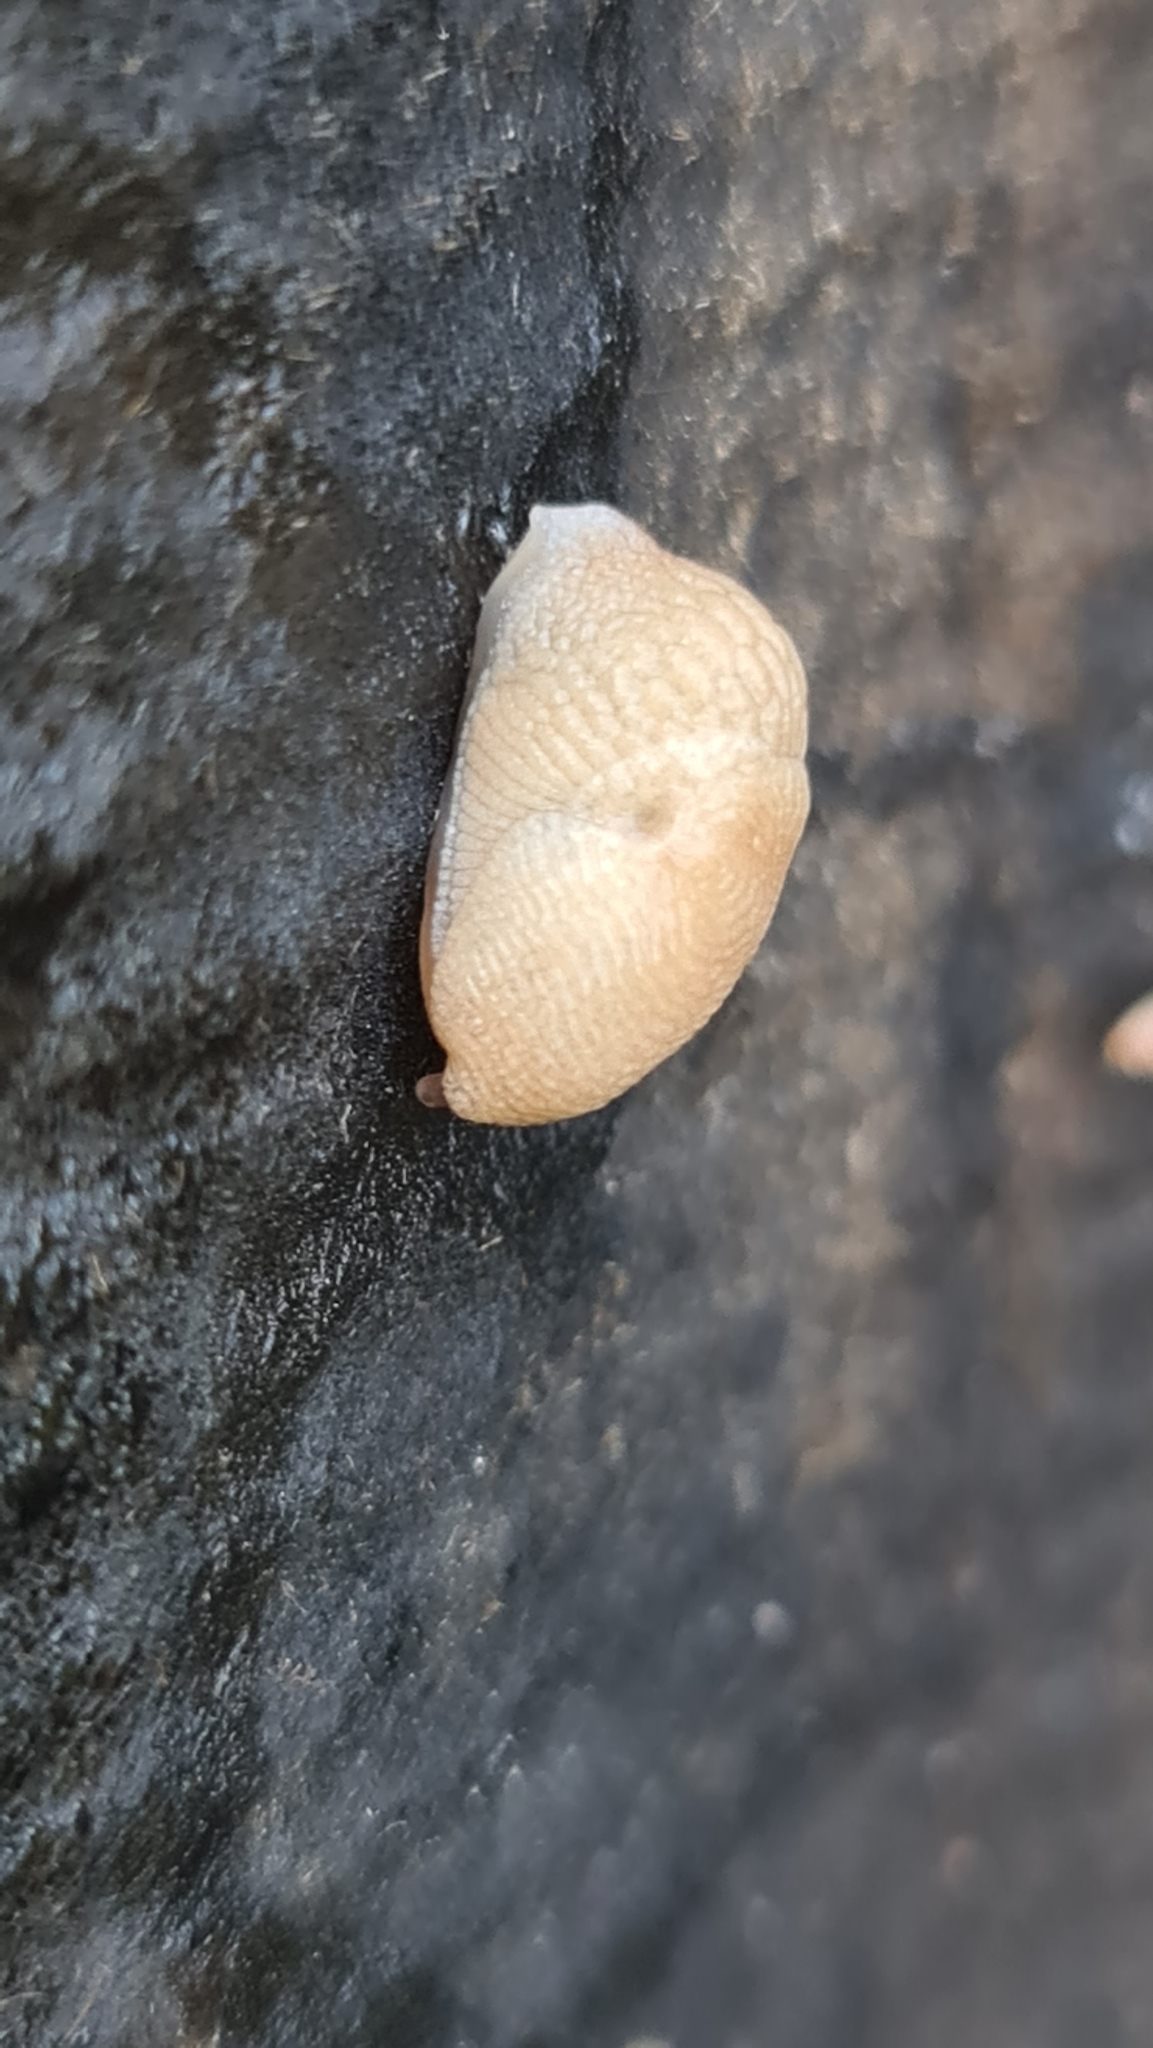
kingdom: Animalia
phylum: Mollusca
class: Gastropoda
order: Stylommatophora
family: Agriolimacidae
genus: Deroceras
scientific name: Deroceras reticulatum
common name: Gray field slug
